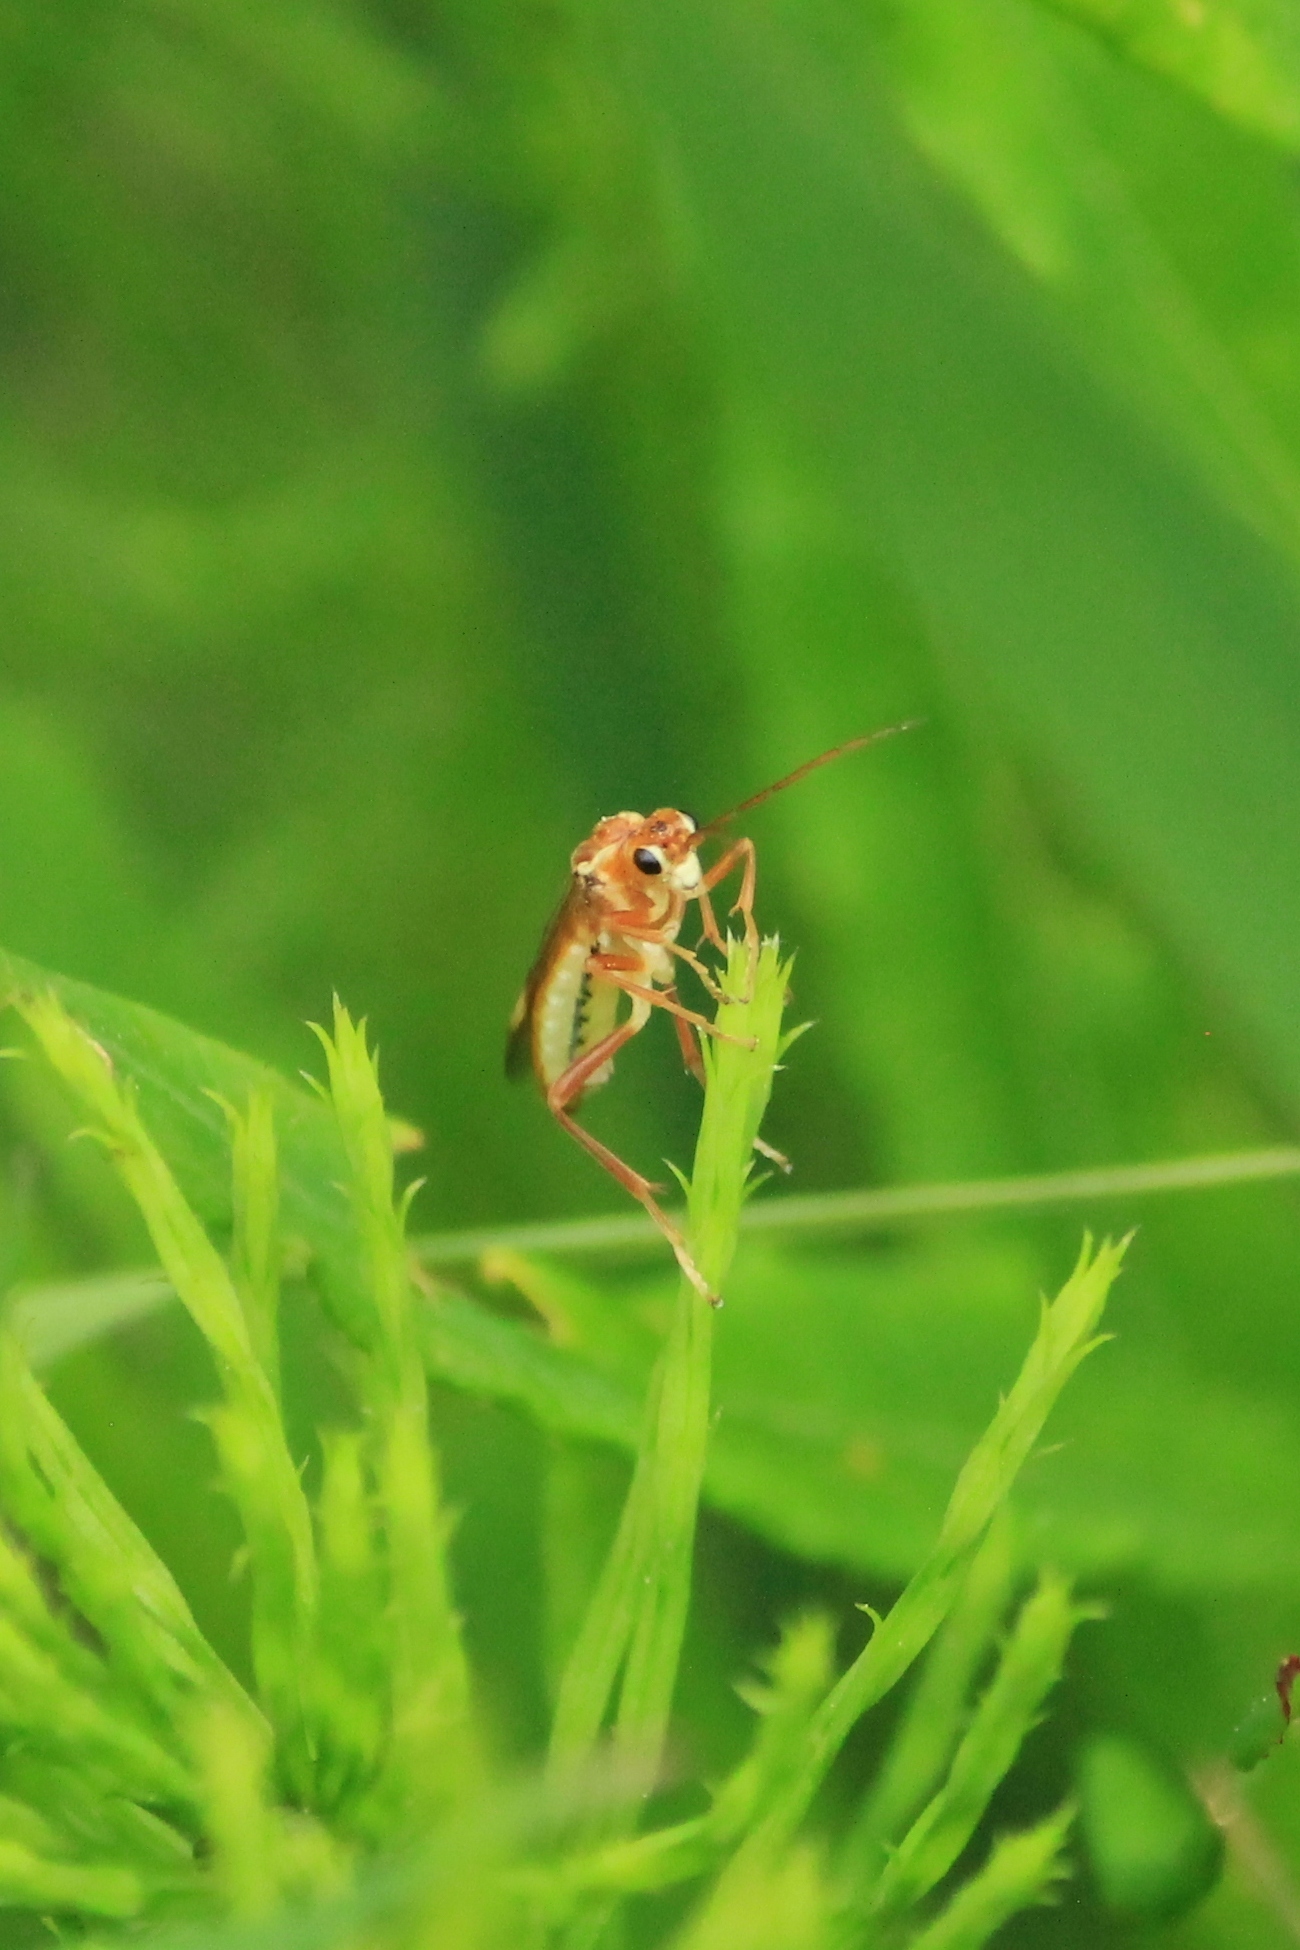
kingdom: Animalia
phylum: Arthropoda
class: Insecta
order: Hymenoptera
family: Tenthredinidae
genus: Tenthredopsis
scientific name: Tenthredopsis auriculata
